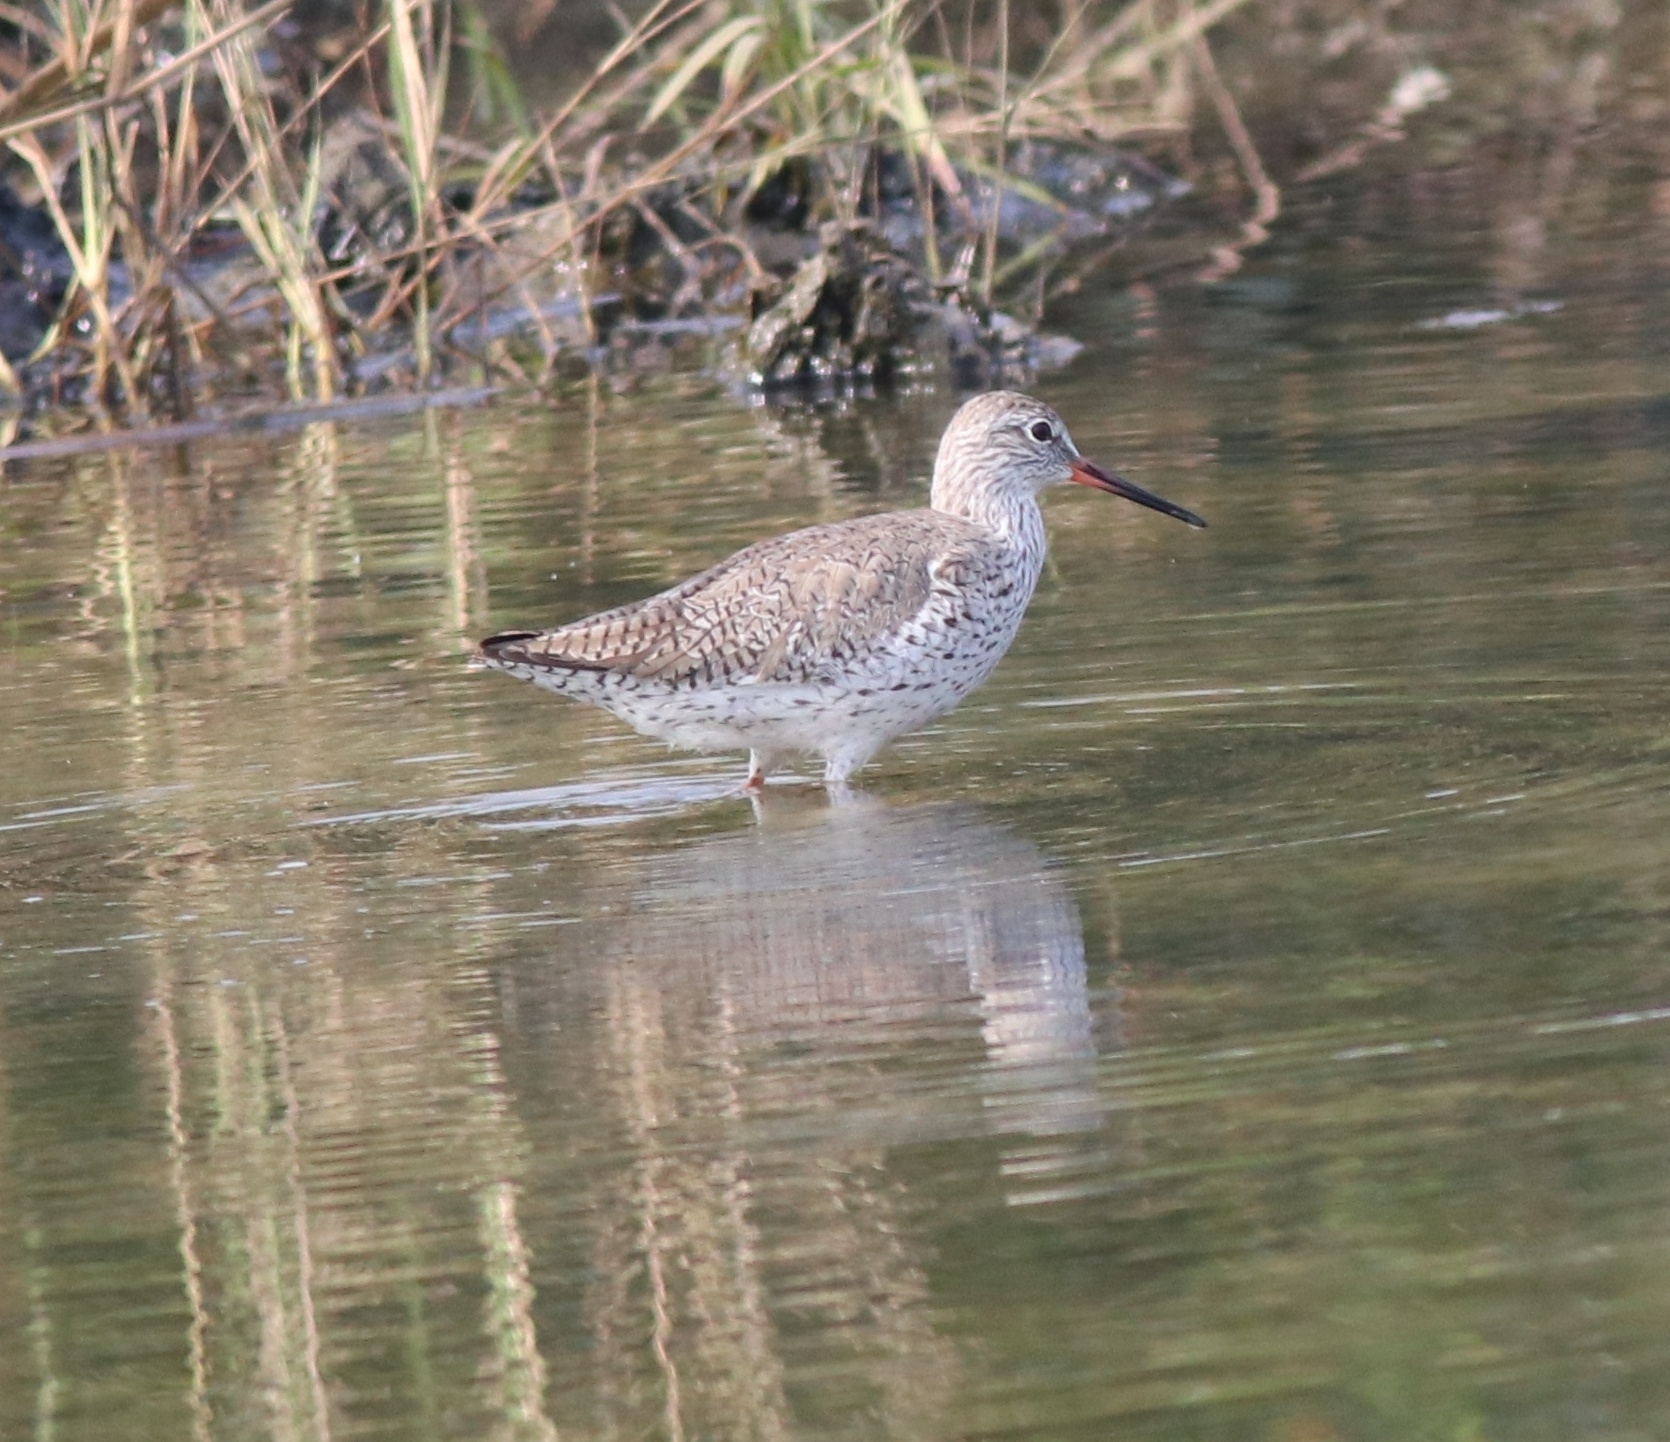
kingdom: Animalia
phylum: Chordata
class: Aves
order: Charadriiformes
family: Scolopacidae
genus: Tringa
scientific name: Tringa totanus
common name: Common redshank
